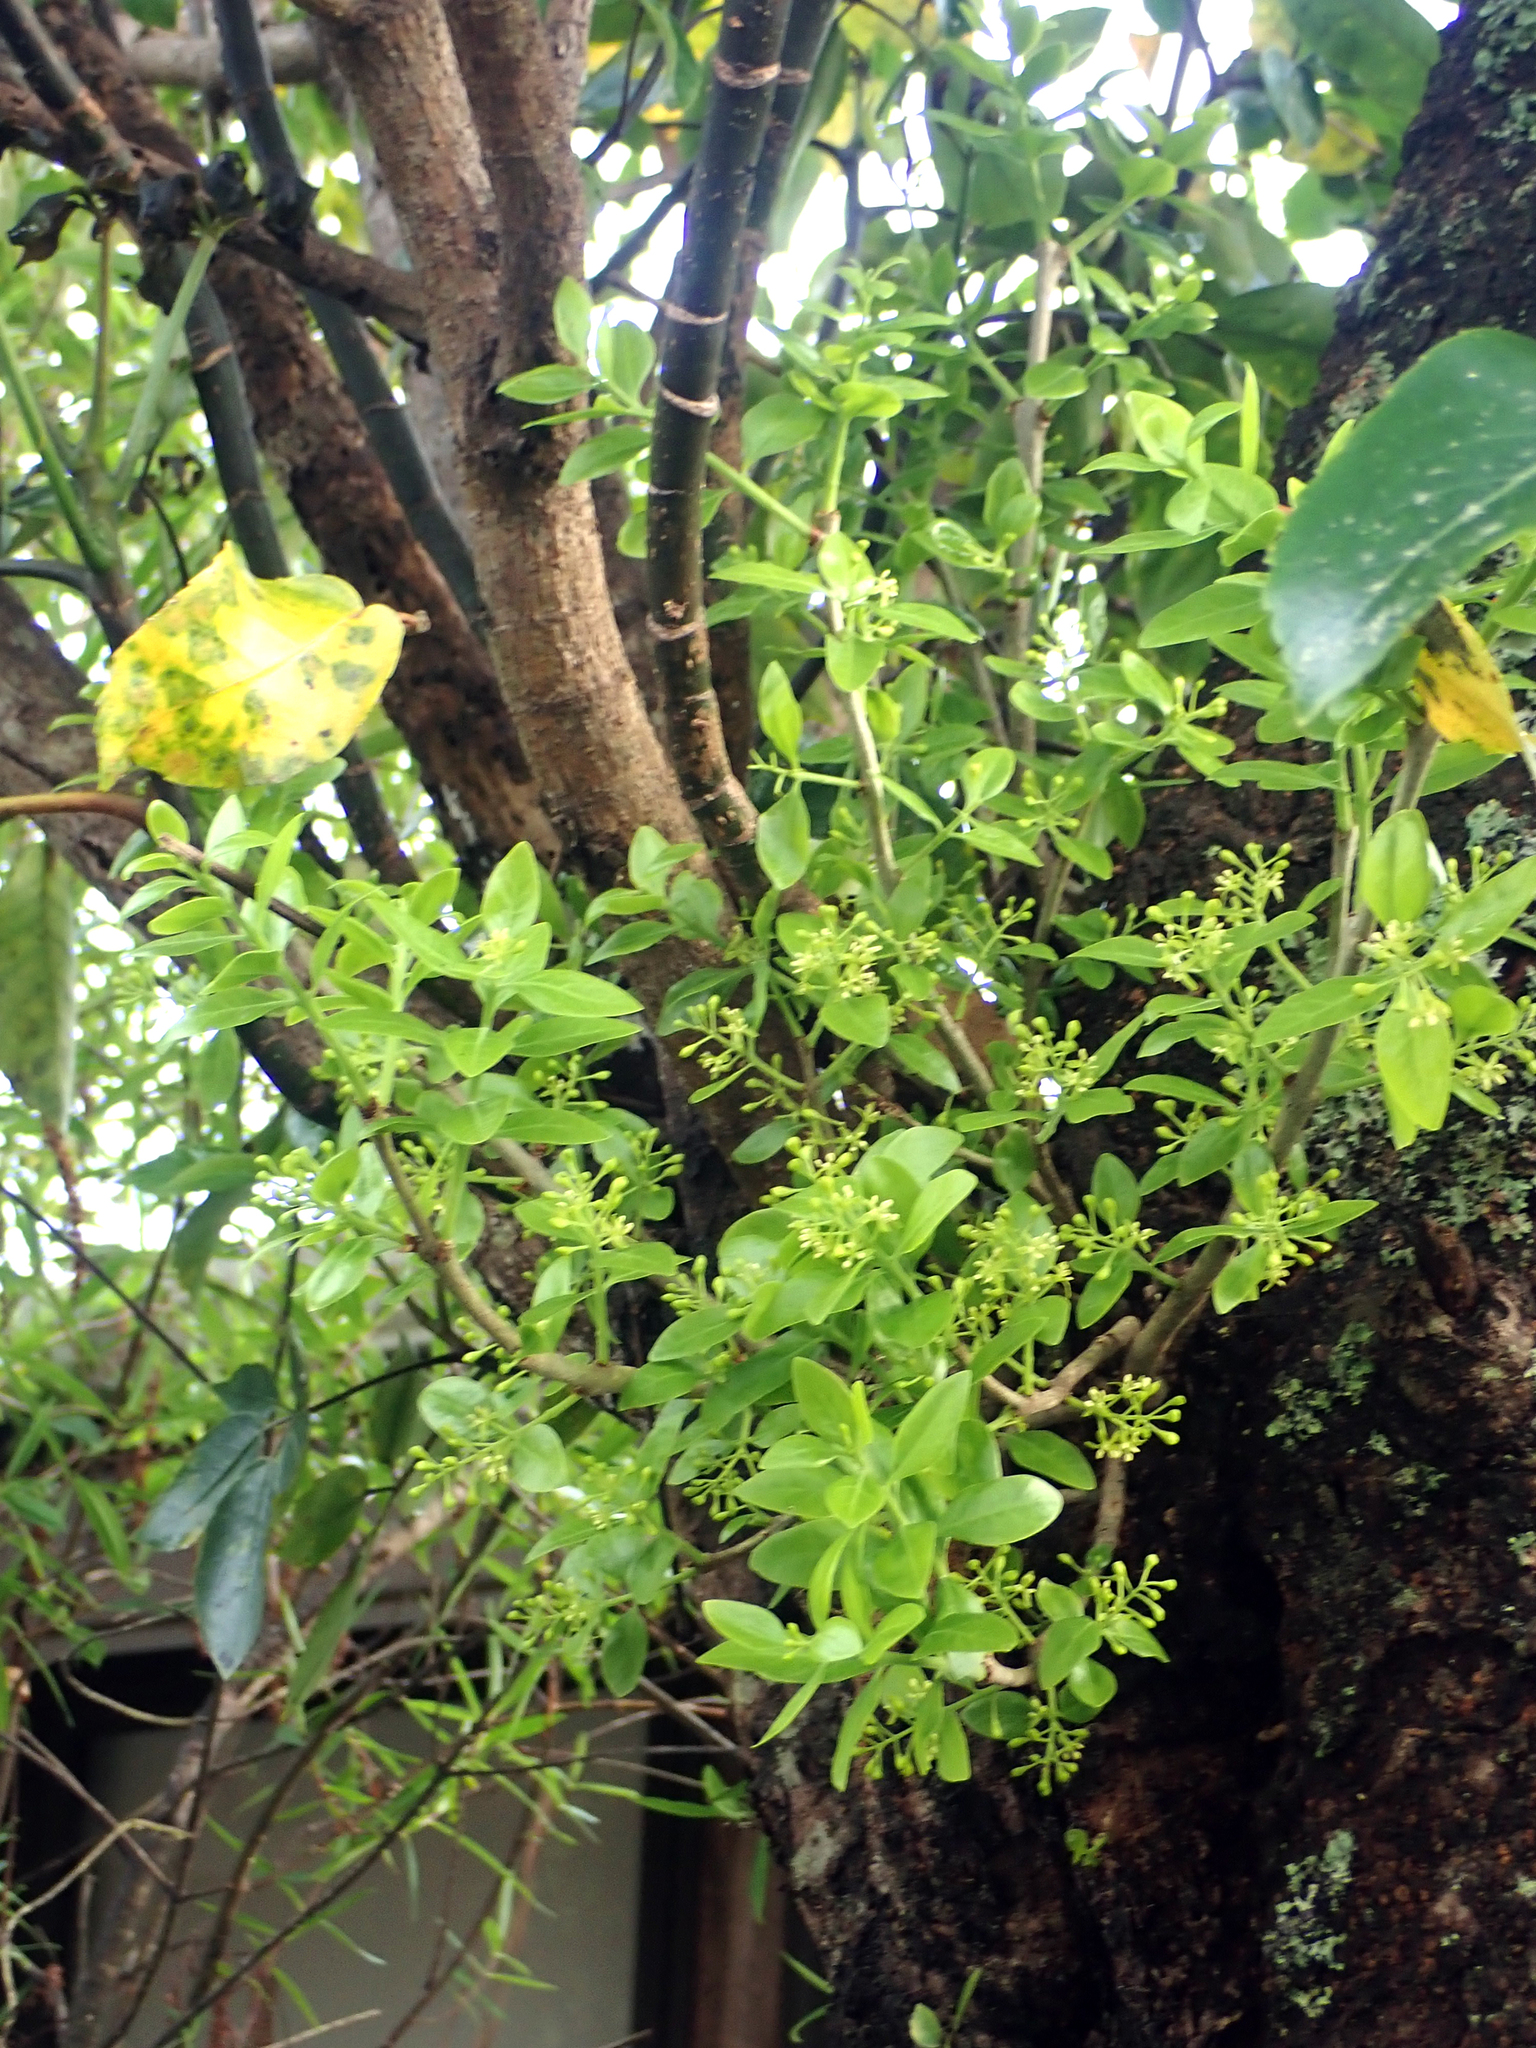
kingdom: Plantae
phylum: Tracheophyta
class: Magnoliopsida
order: Santalales
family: Loranthaceae
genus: Tupeia
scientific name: Tupeia antarctica
